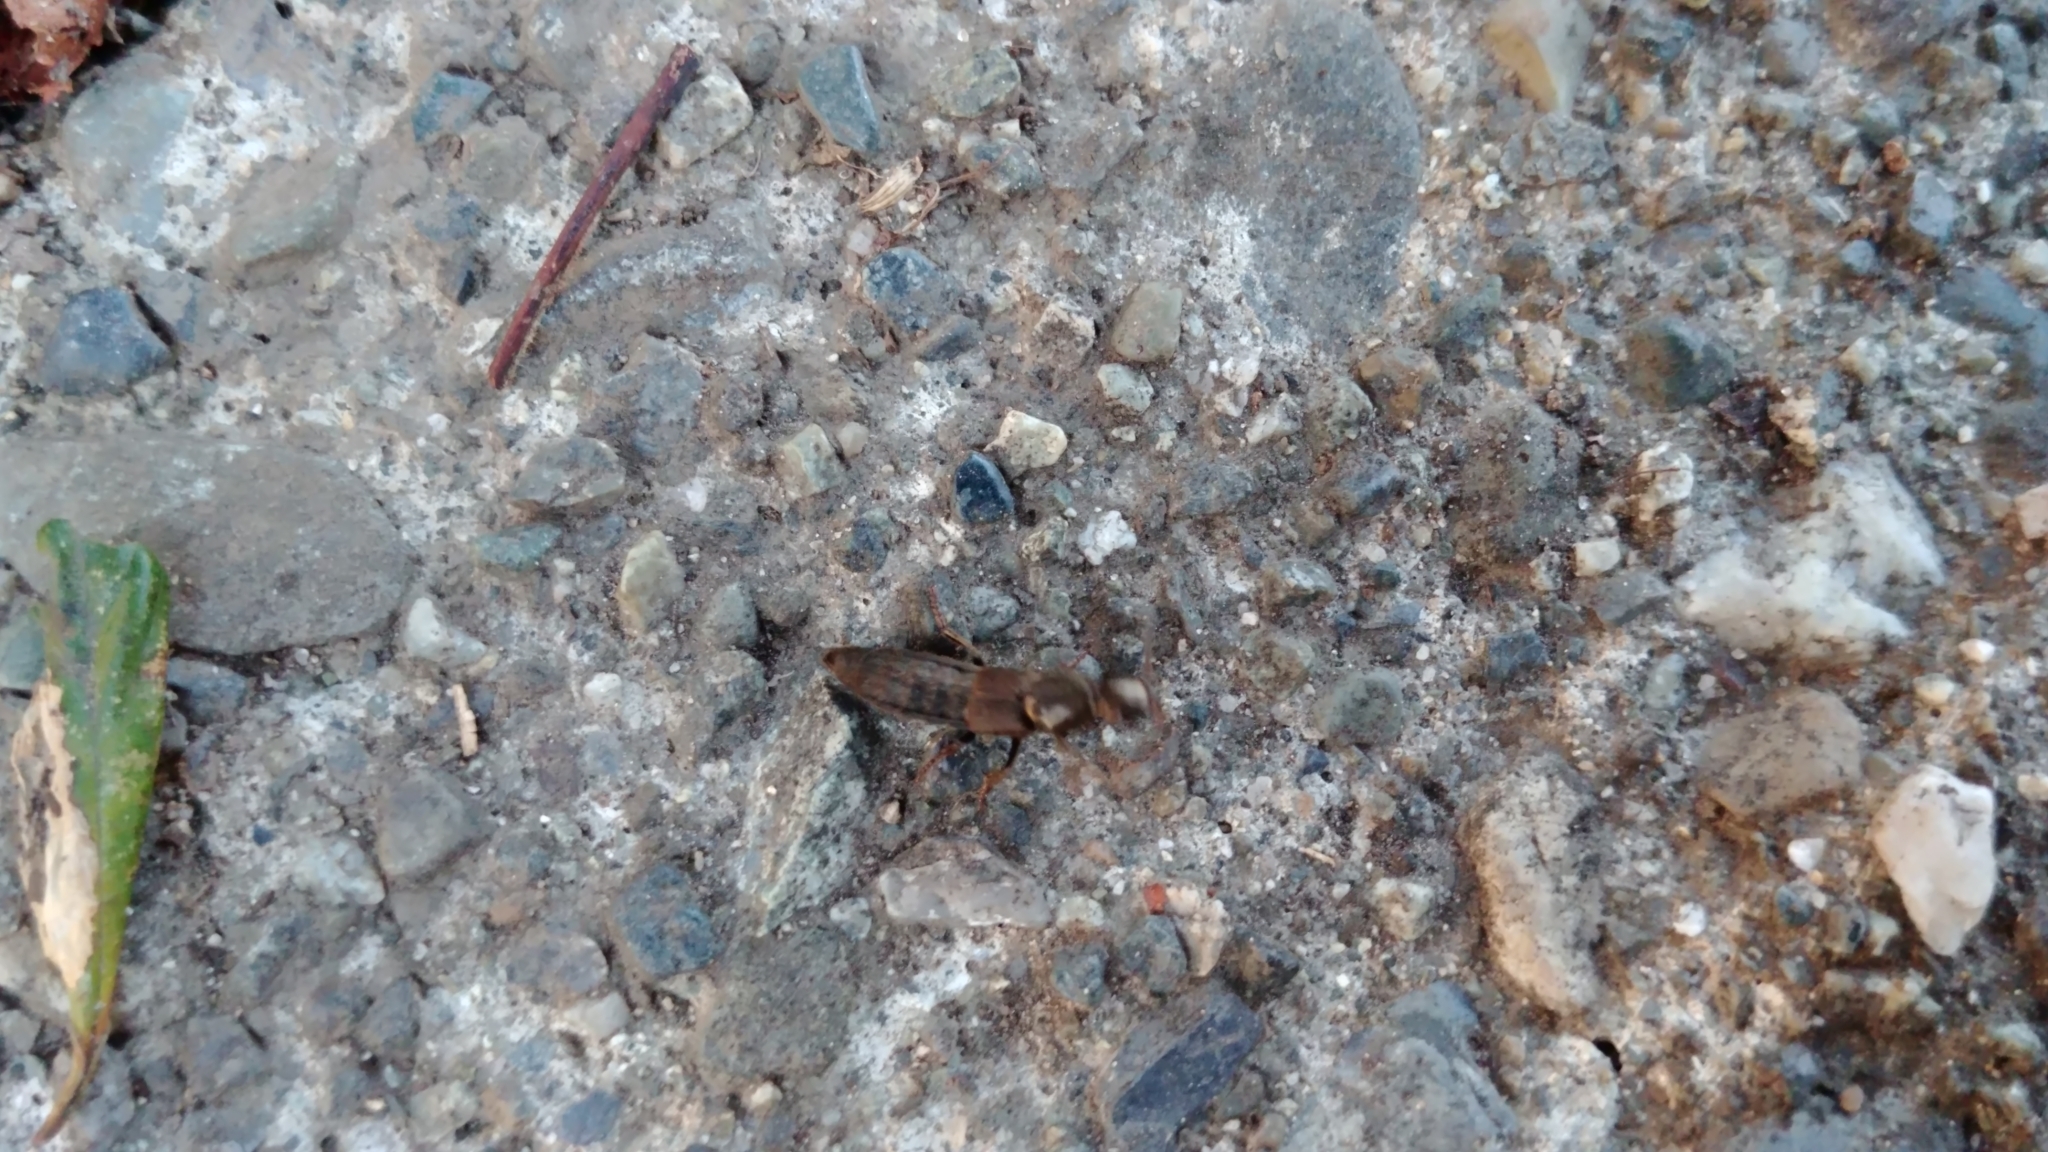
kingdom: Animalia
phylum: Arthropoda
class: Insecta
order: Coleoptera
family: Staphylinidae
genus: Ocypus
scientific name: Ocypus aeneocephalus
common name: Staph beetle
